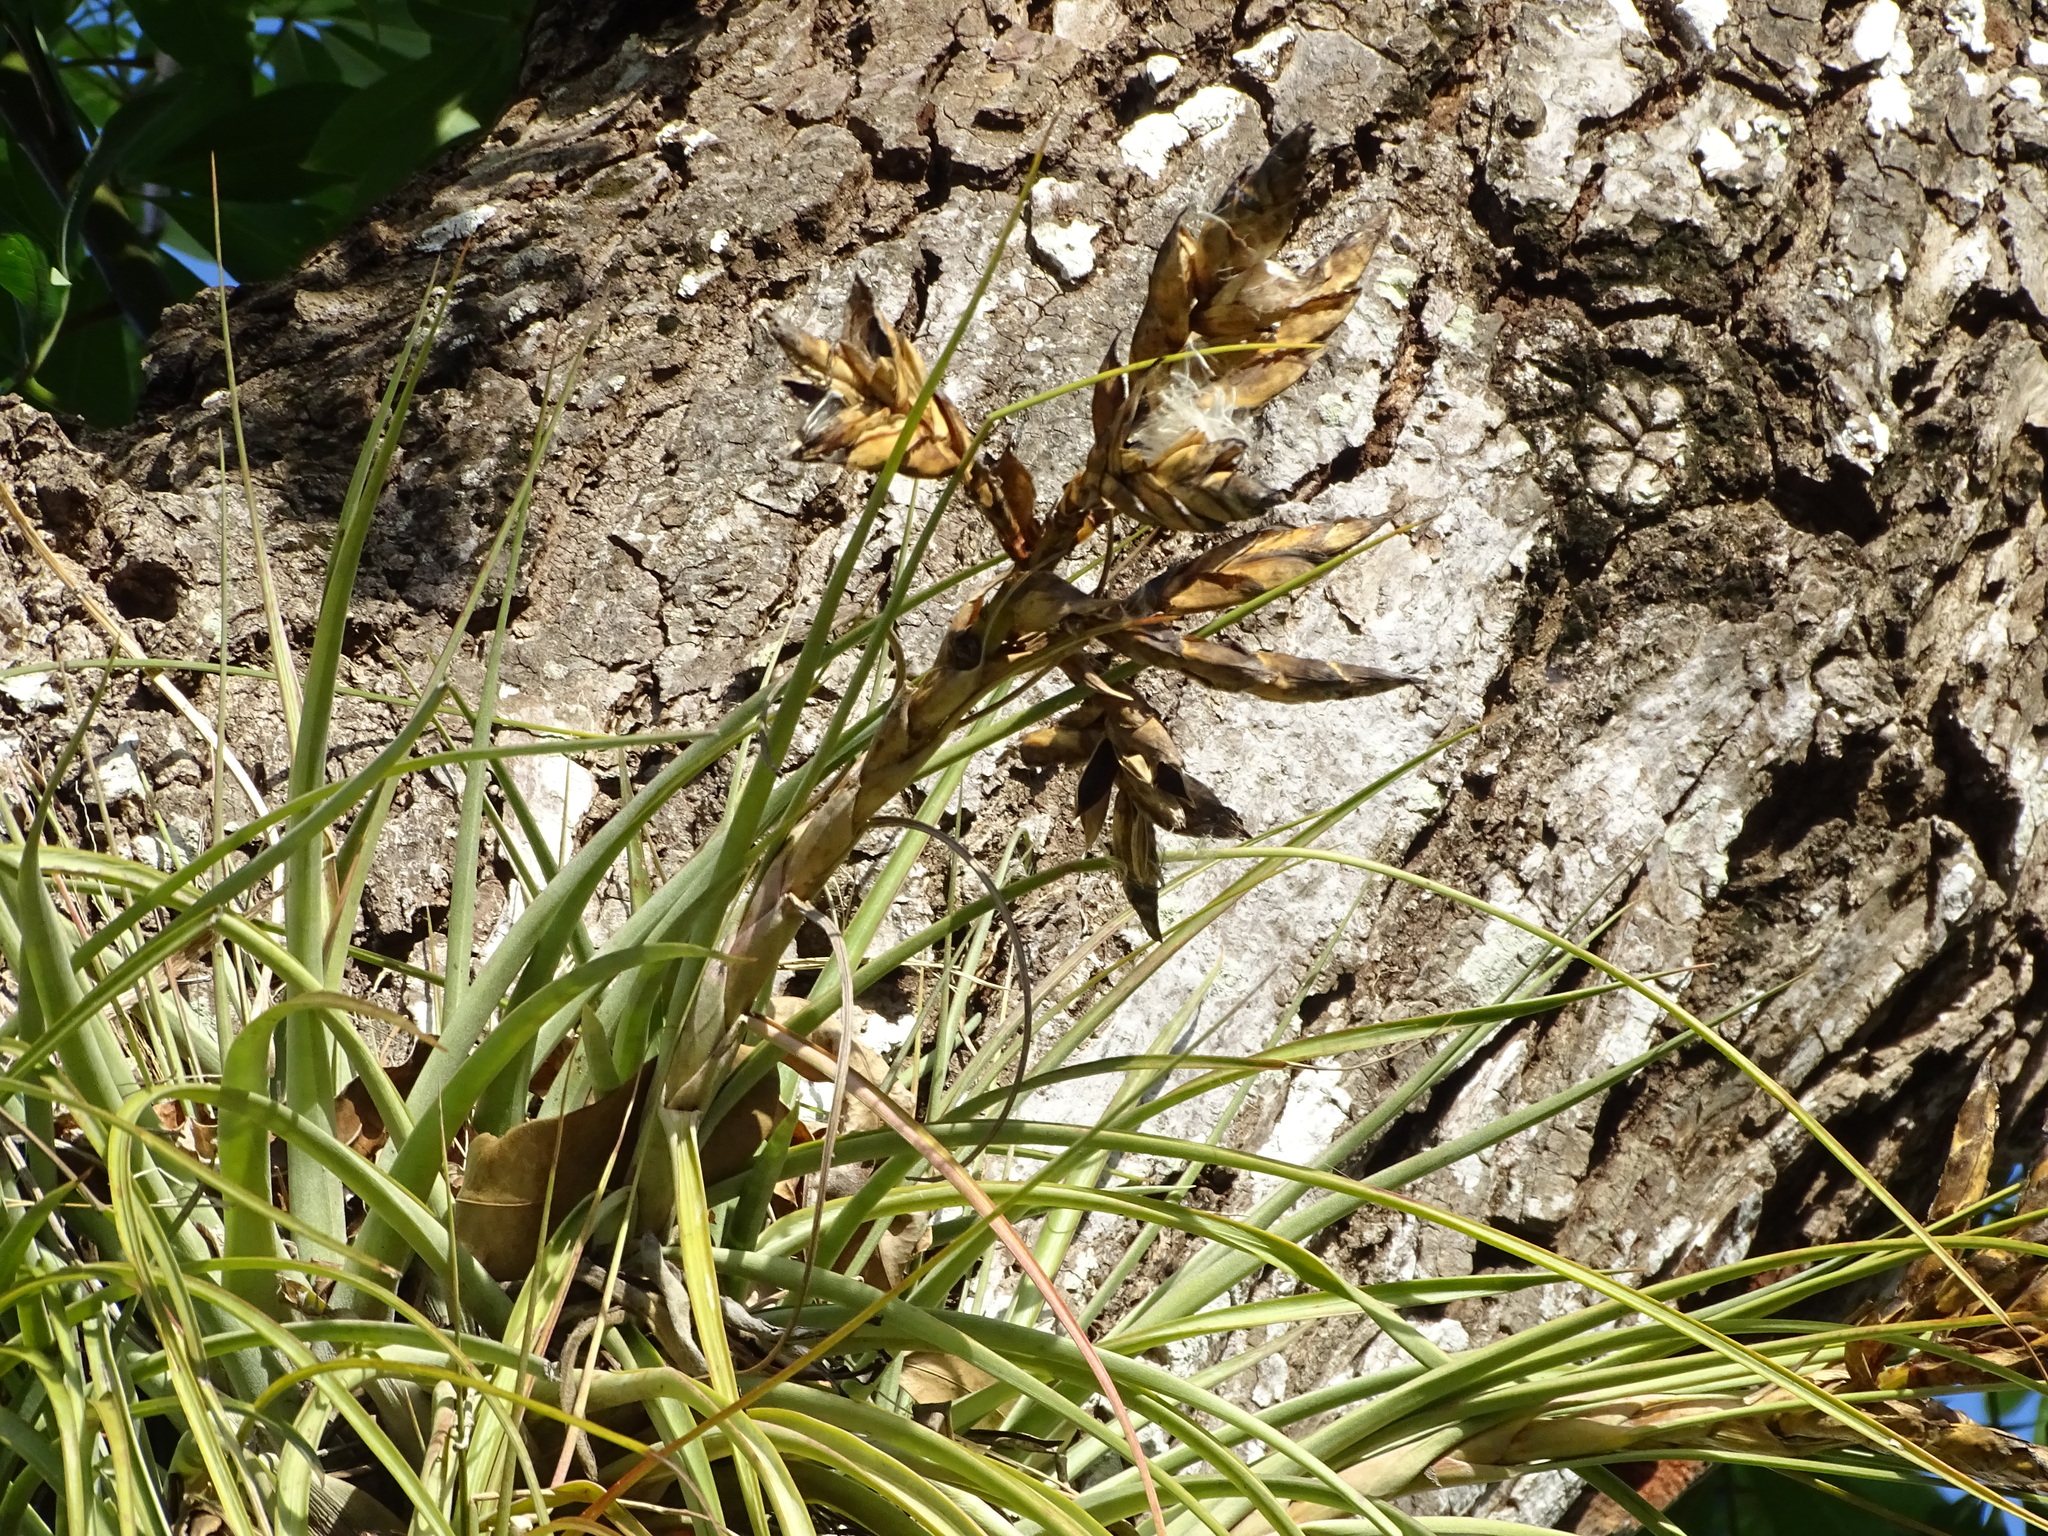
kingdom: Plantae
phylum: Tracheophyta
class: Liliopsida
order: Poales
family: Bromeliaceae
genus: Tillandsia
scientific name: Tillandsia fasciculata
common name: Giant airplant
